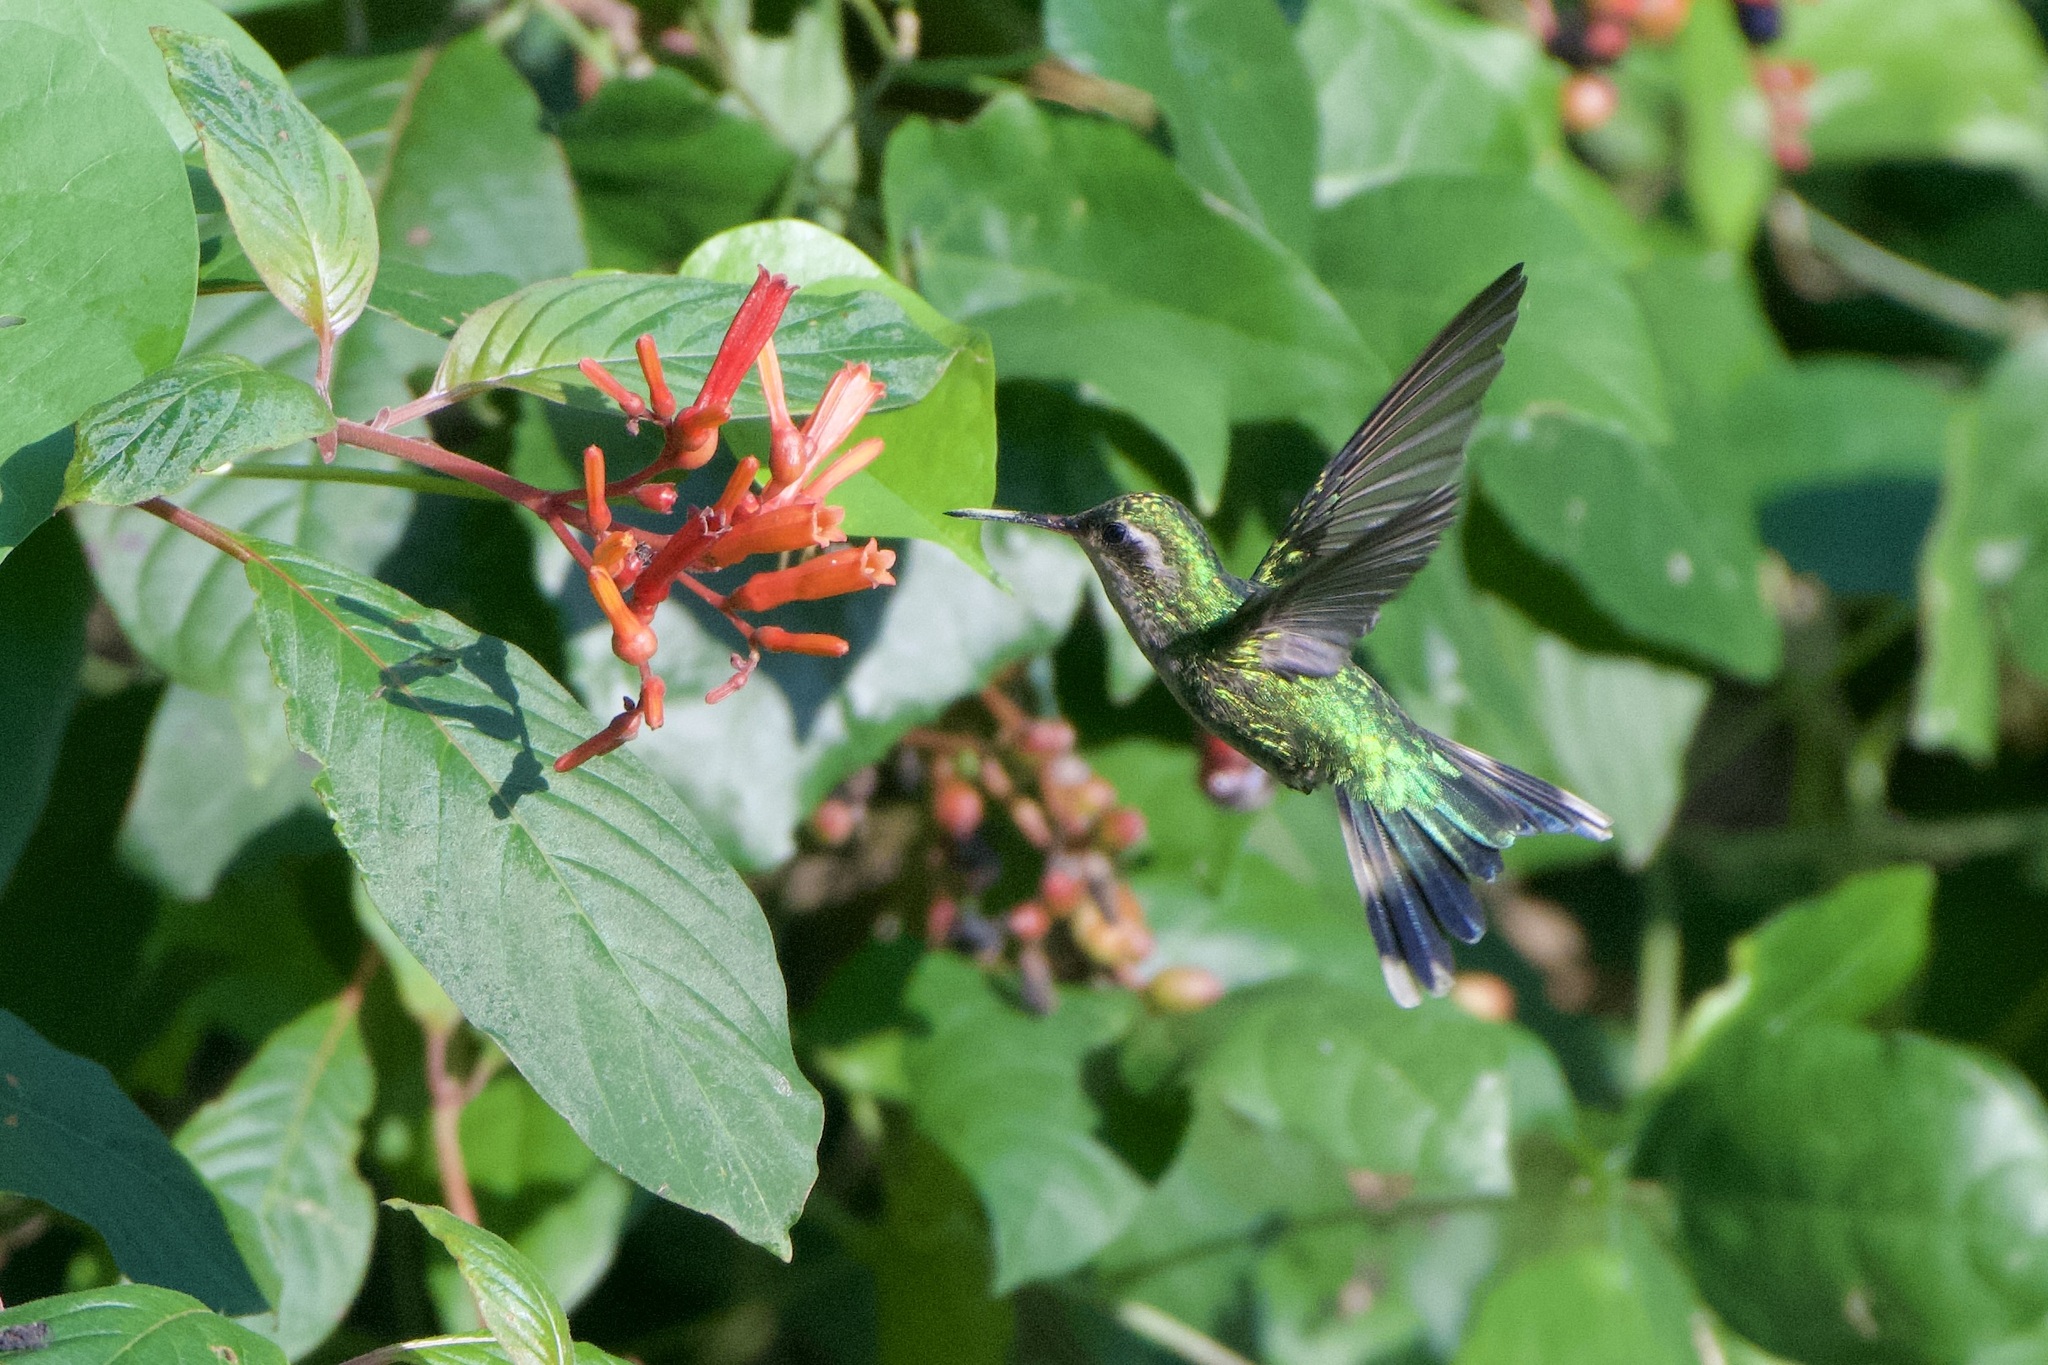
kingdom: Animalia
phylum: Chordata
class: Aves
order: Apodiformes
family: Trochilidae
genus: Cynanthus
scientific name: Cynanthus forficatus
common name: Cozumel emerald
